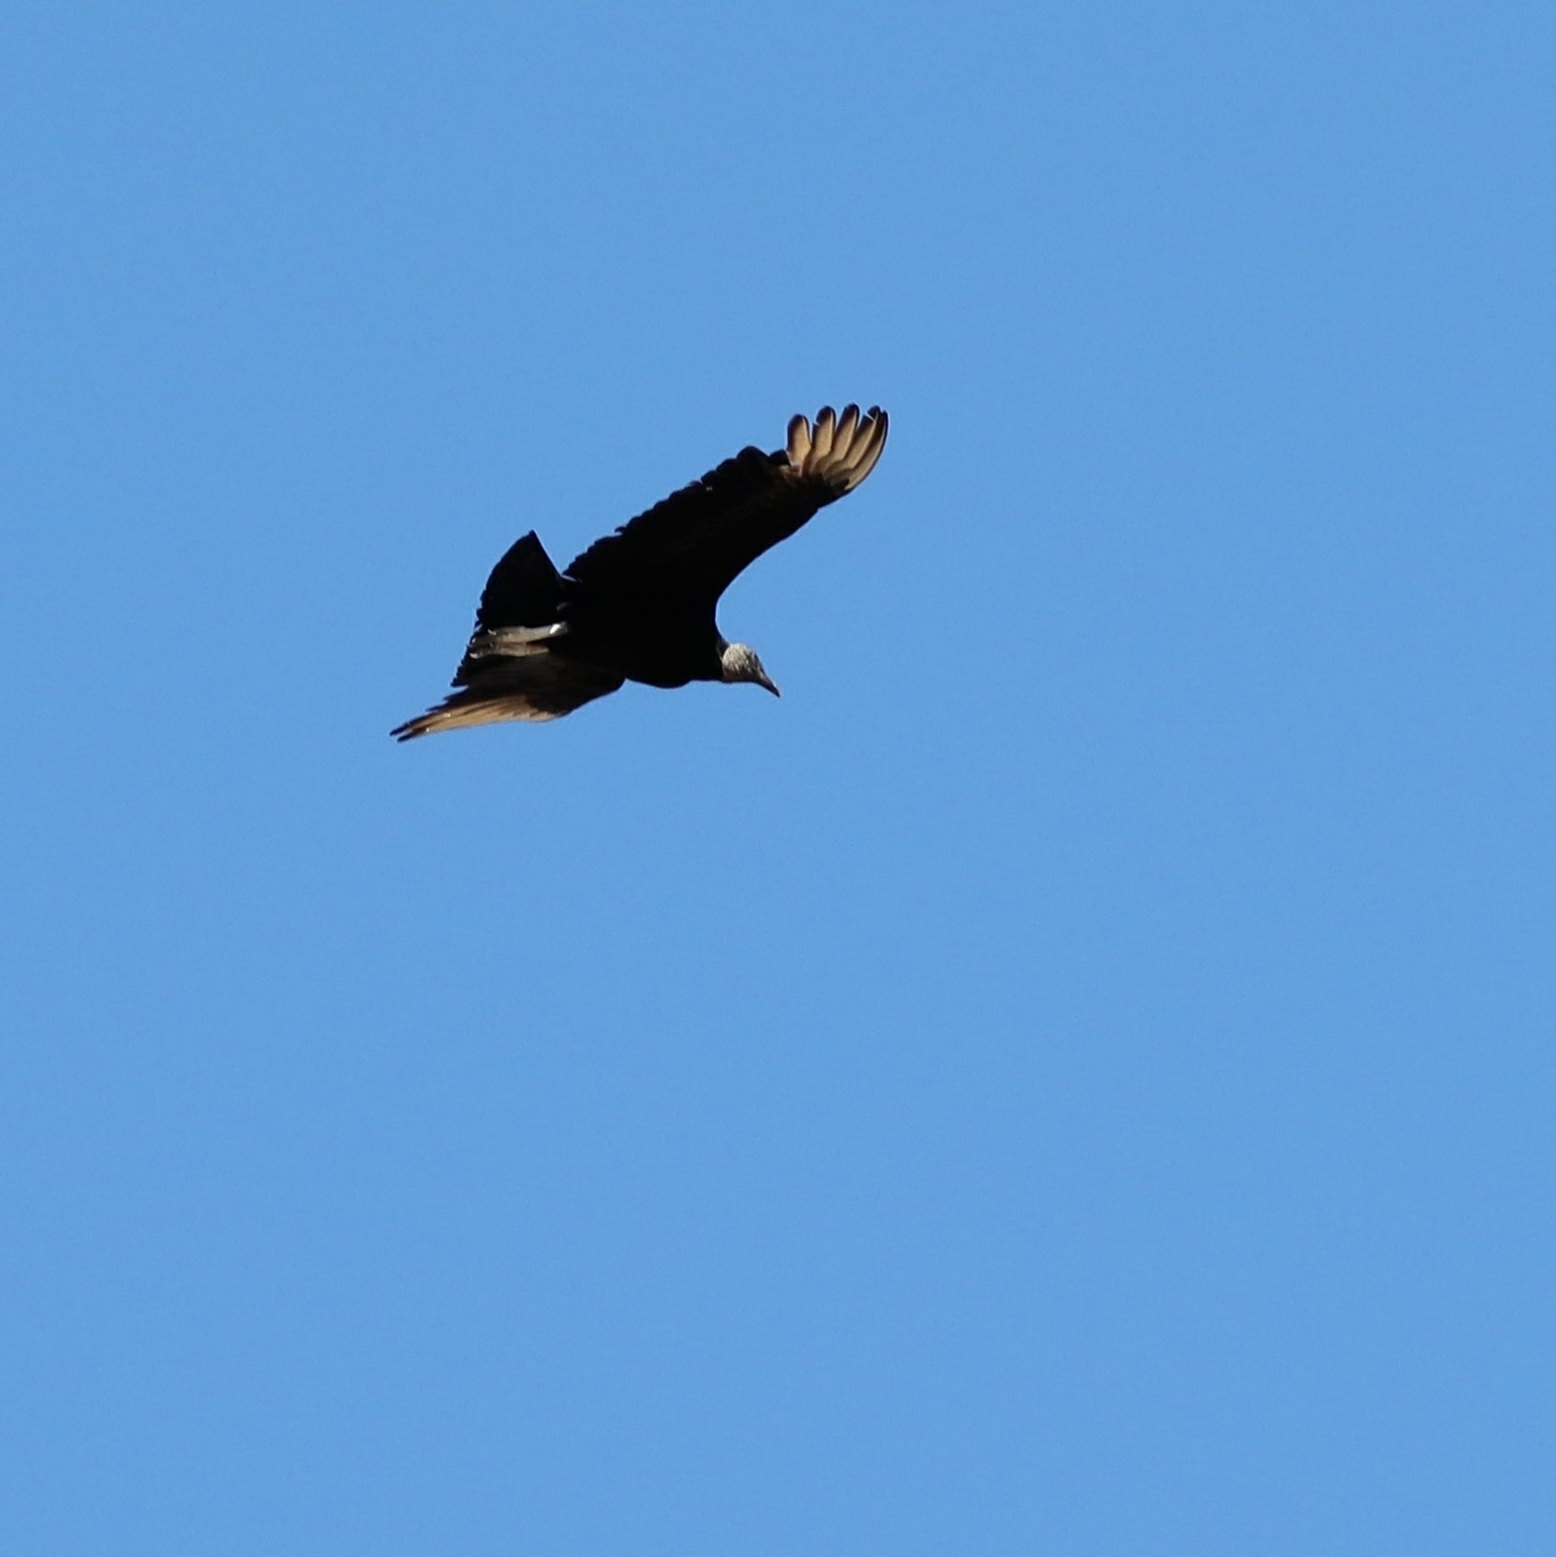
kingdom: Animalia
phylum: Chordata
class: Aves
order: Accipitriformes
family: Cathartidae
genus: Coragyps
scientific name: Coragyps atratus
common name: Black vulture
